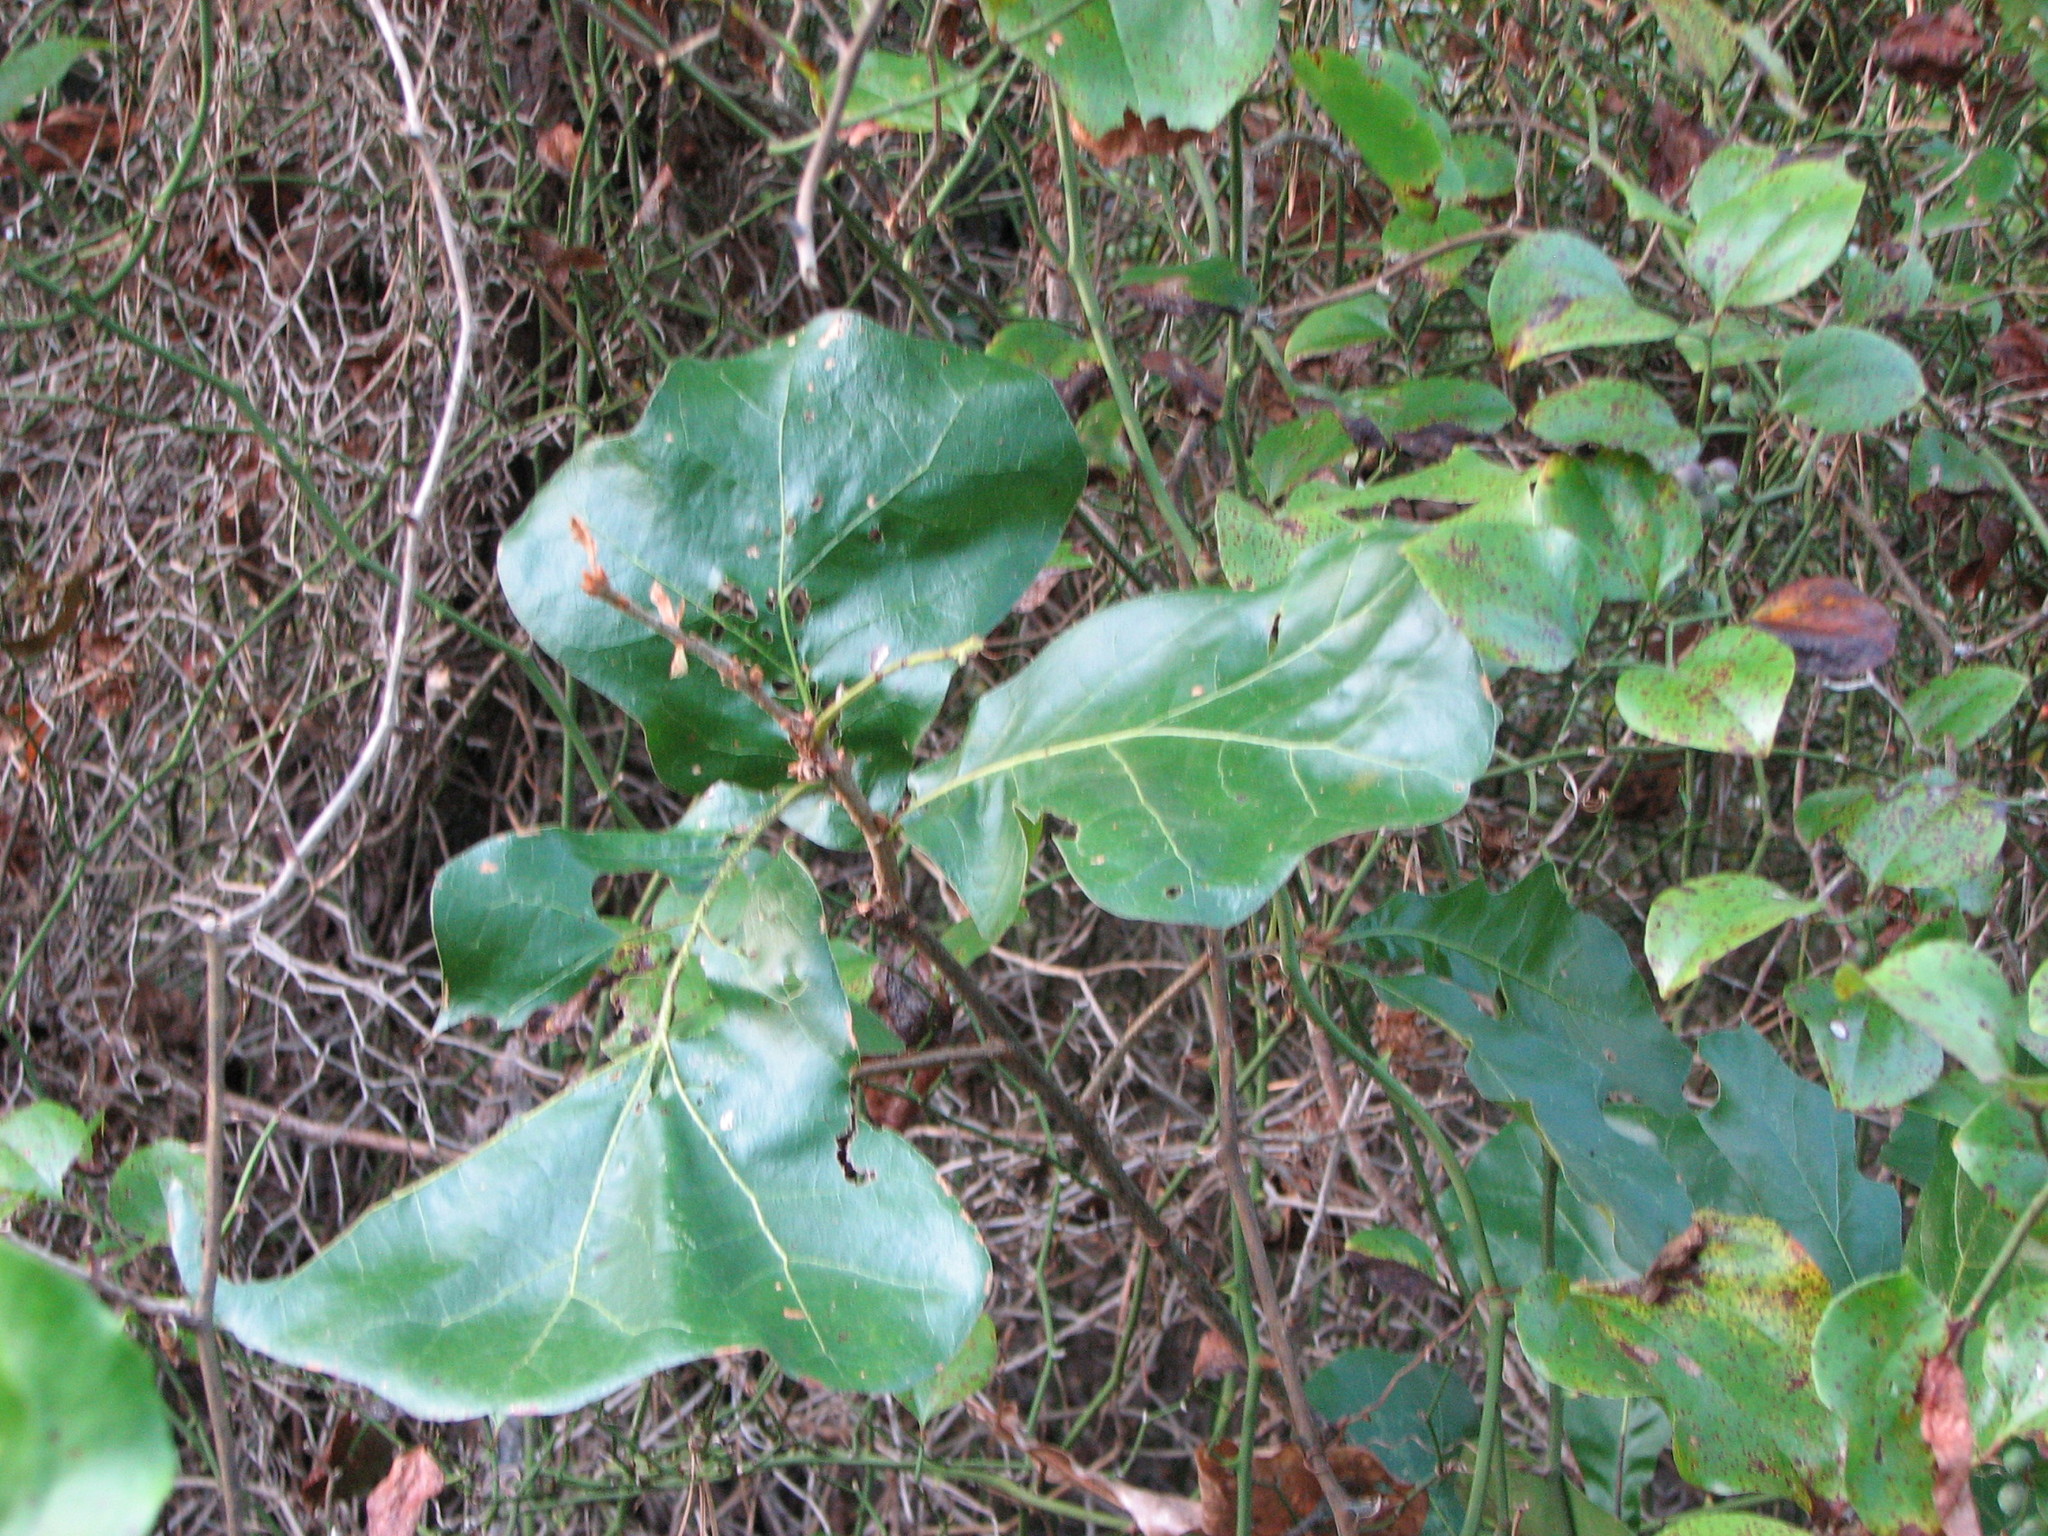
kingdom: Plantae
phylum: Tracheophyta
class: Magnoliopsida
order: Fagales
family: Fagaceae
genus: Quercus
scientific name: Quercus marilandica
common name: Blackjack oak
